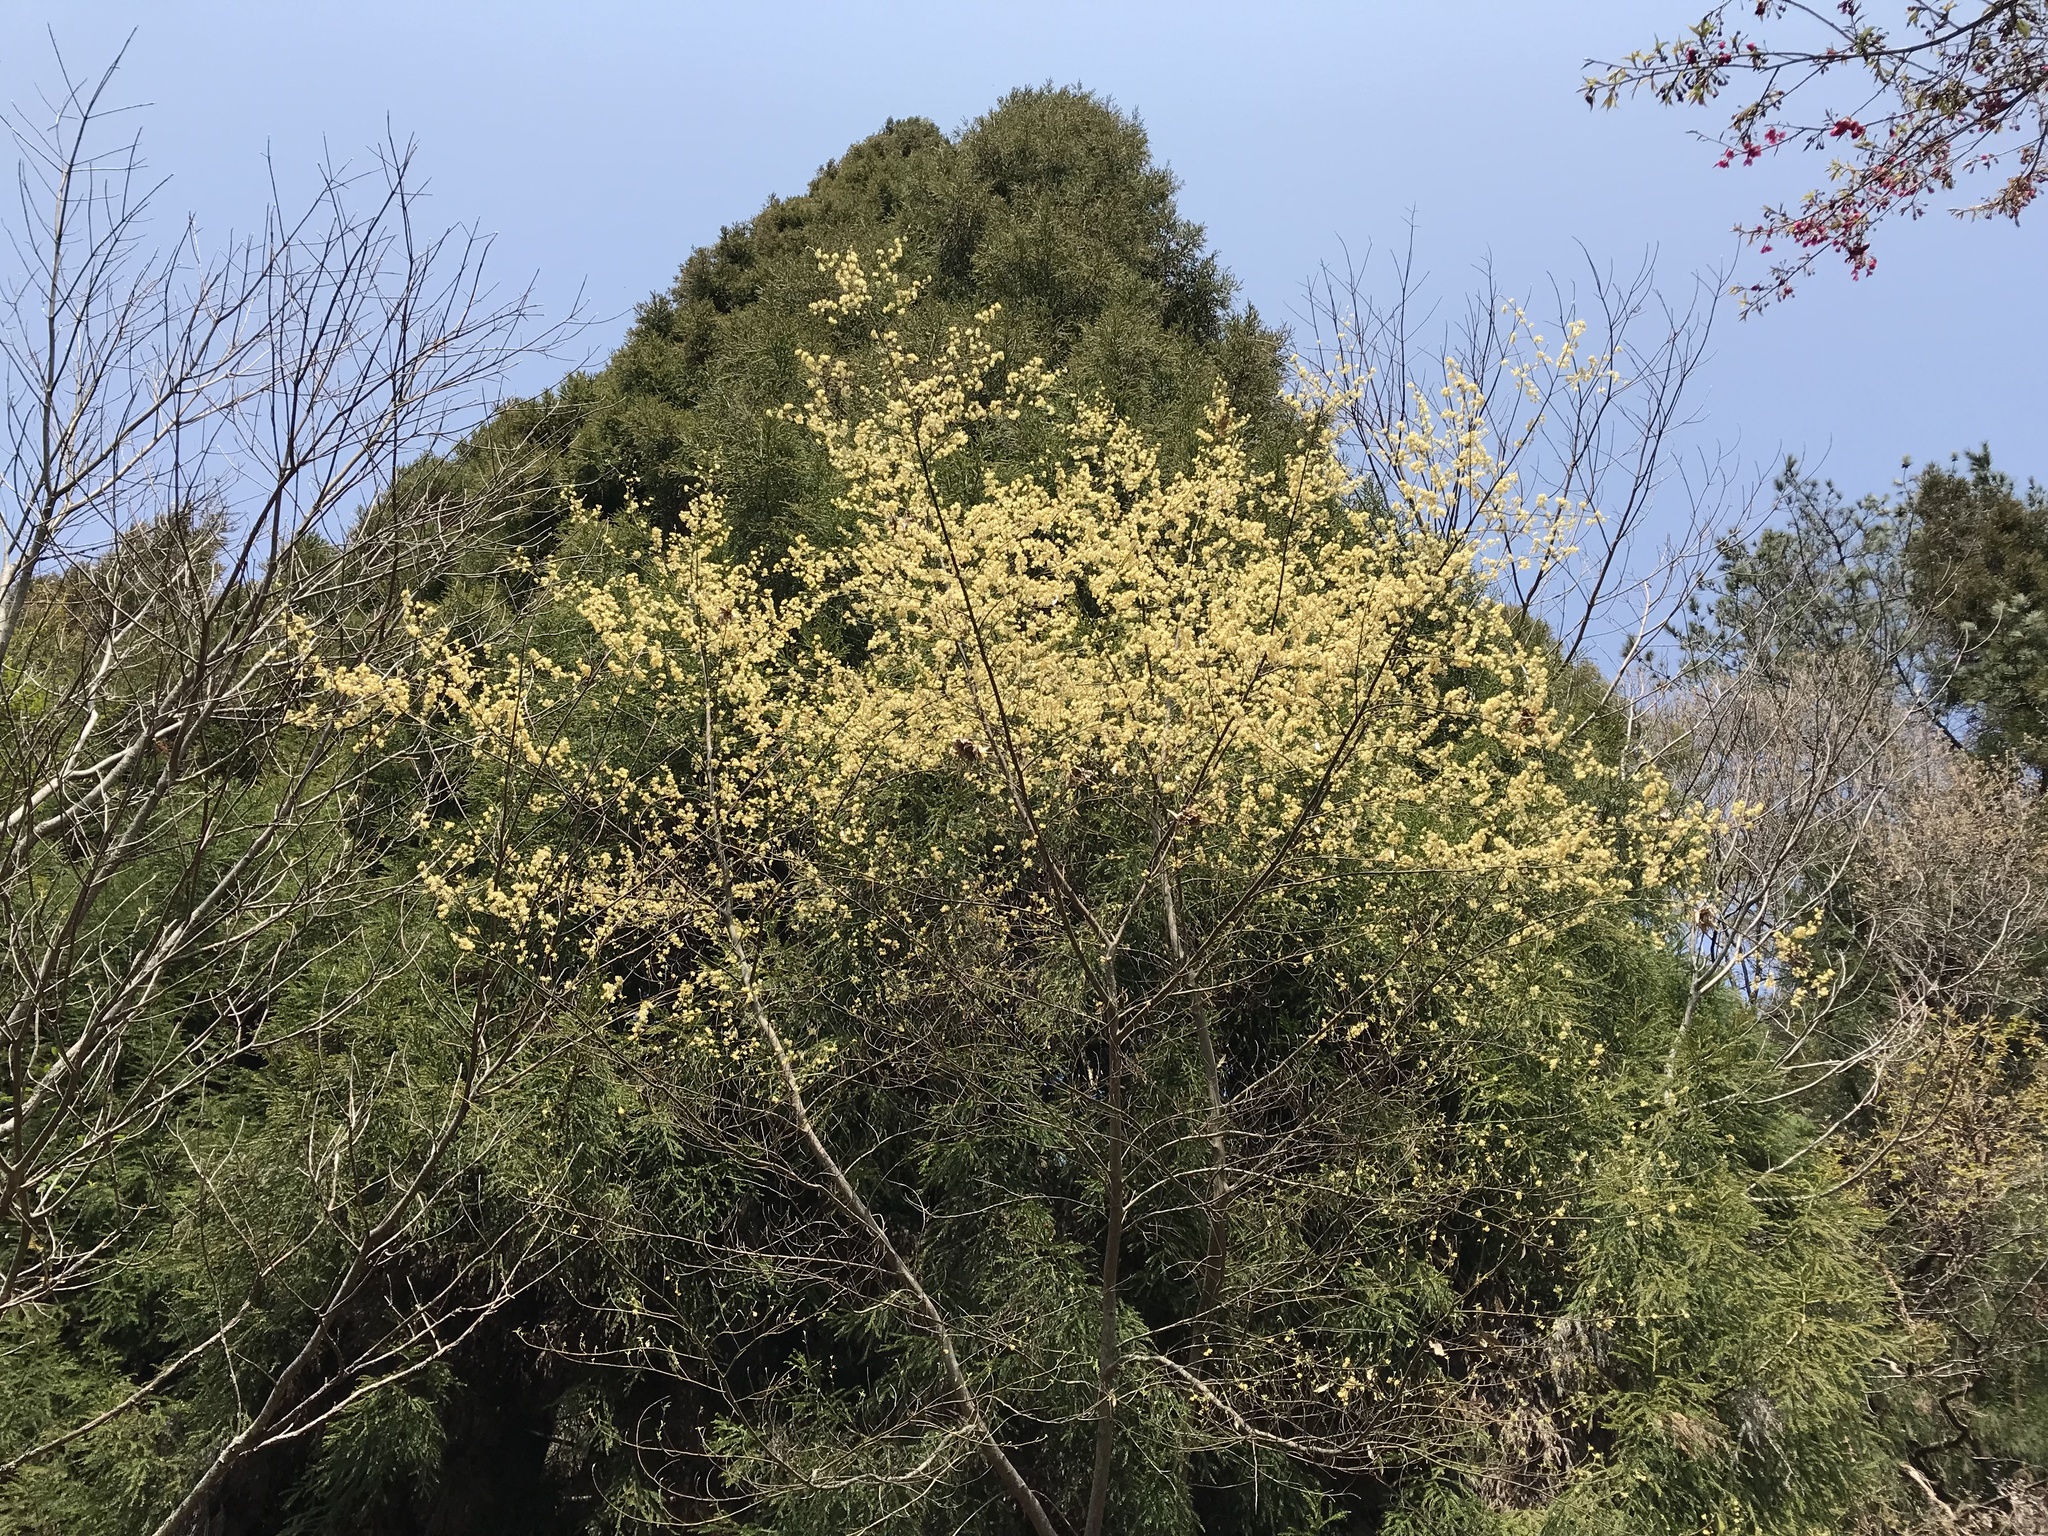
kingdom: Plantae
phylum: Tracheophyta
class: Magnoliopsida
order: Laurales
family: Lauraceae
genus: Litsea
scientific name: Litsea cubeba
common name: Mountain-pepper
